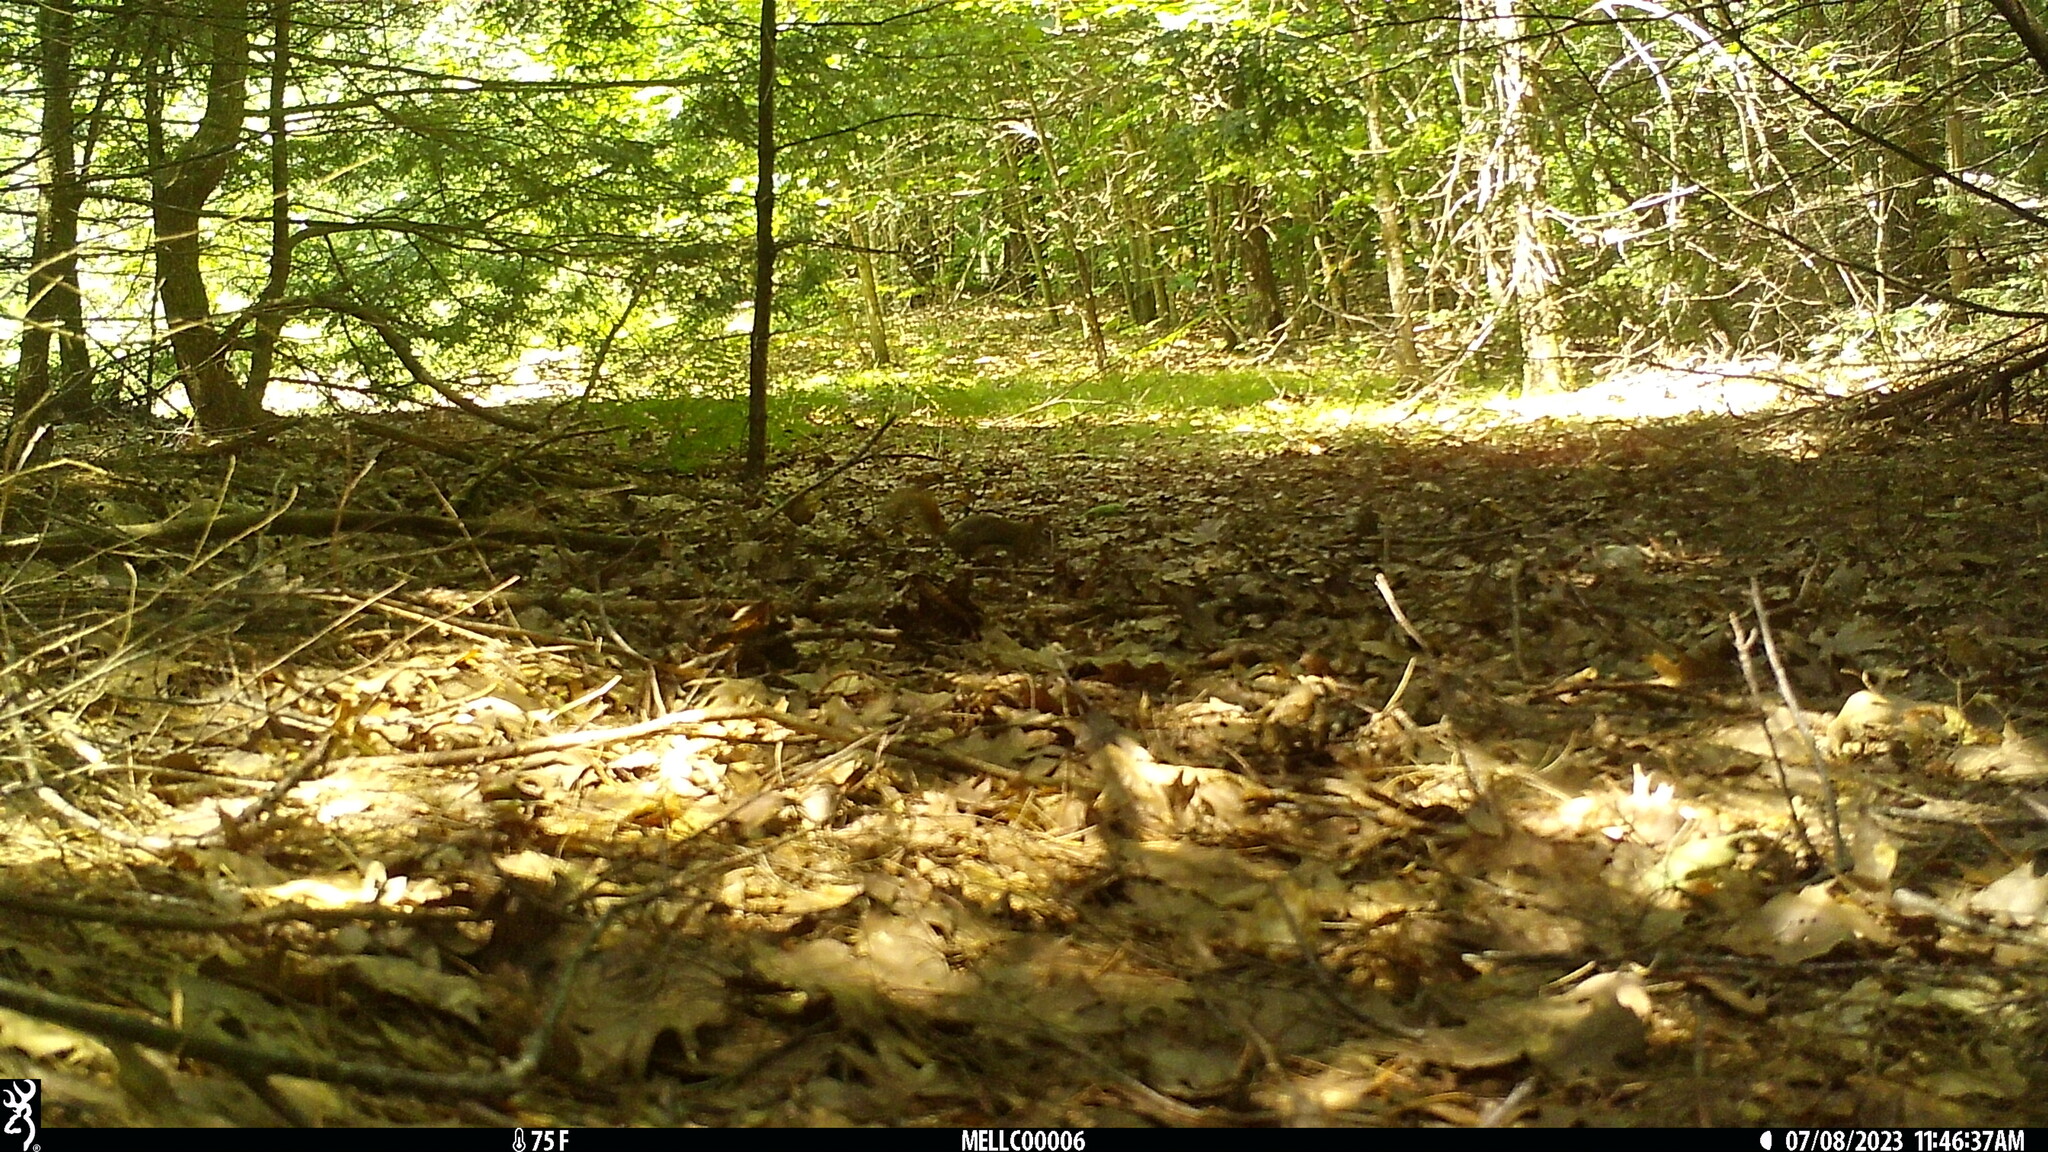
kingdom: Animalia
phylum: Chordata
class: Mammalia
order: Rodentia
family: Sciuridae
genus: Tamiasciurus
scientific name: Tamiasciurus hudsonicus
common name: Red squirrel
